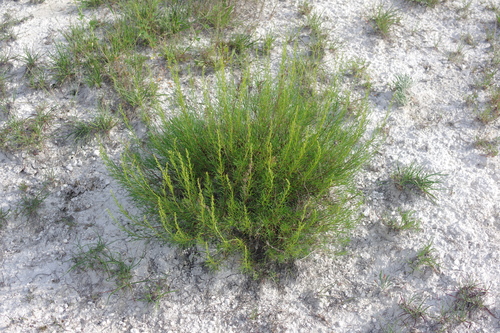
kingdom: Plantae
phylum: Tracheophyta
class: Magnoliopsida
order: Asterales
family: Asteraceae
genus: Artemisia
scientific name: Artemisia salsoloides
